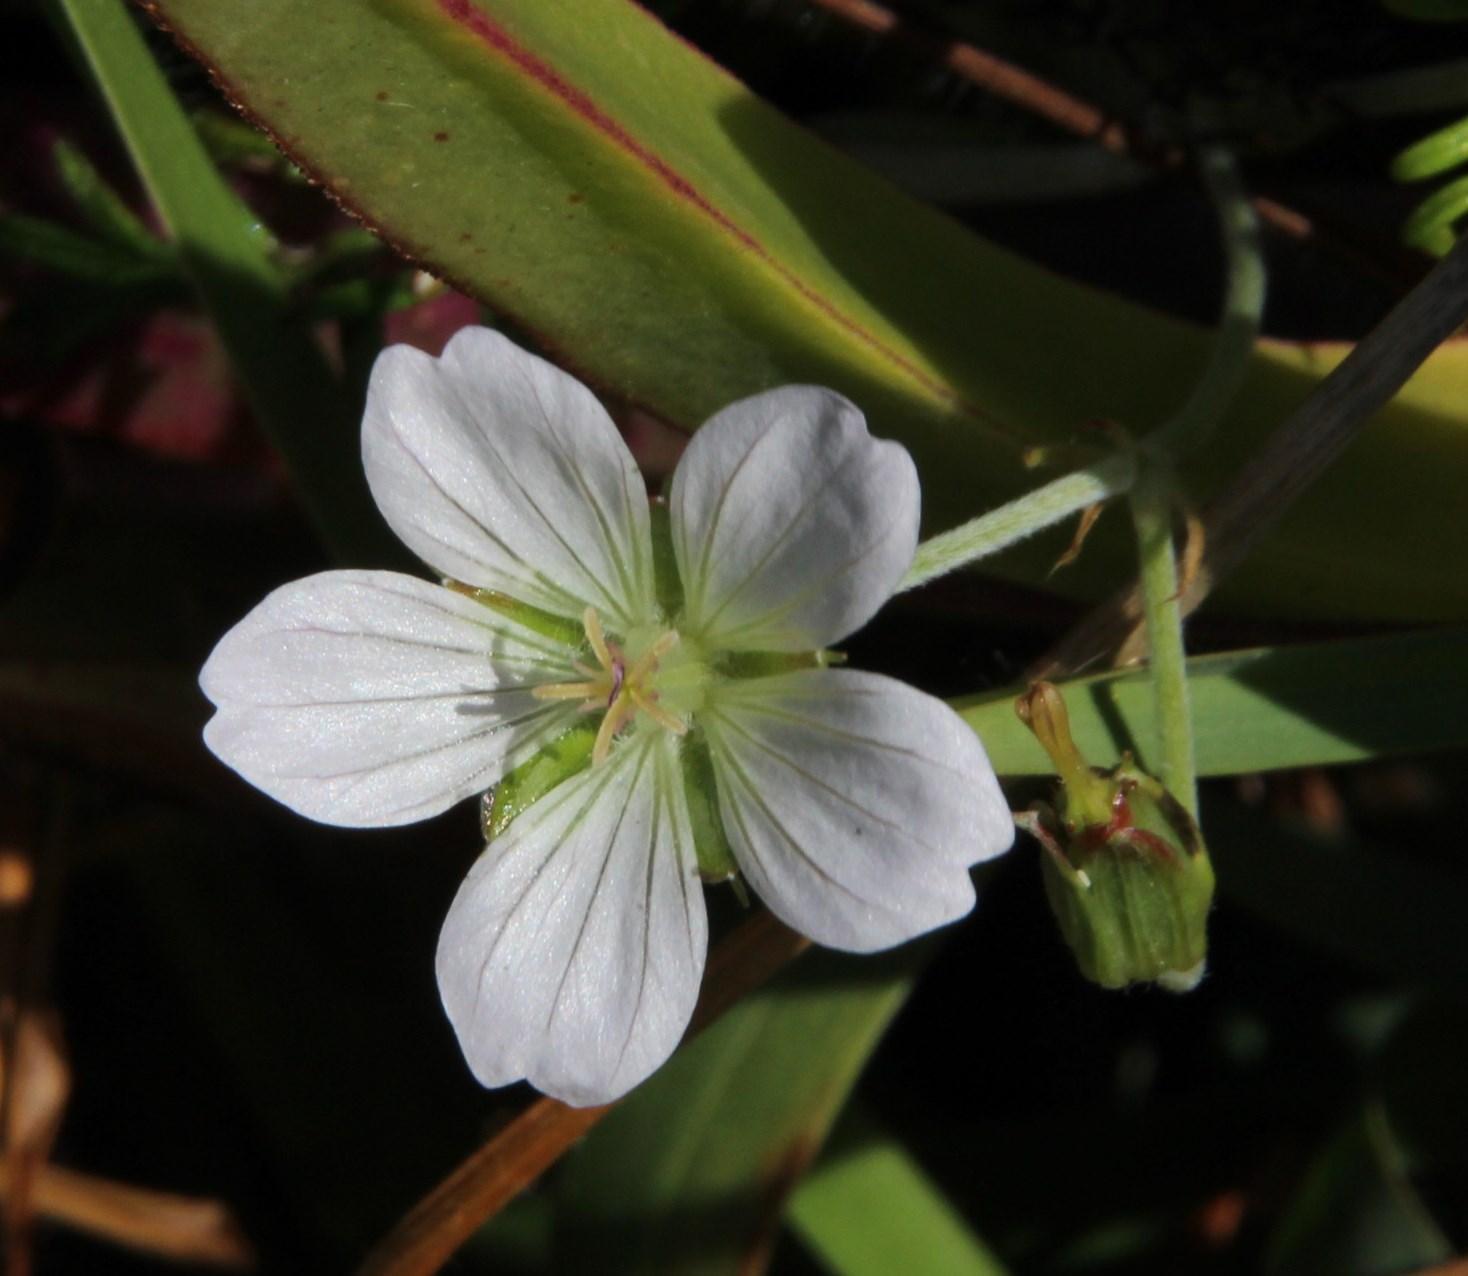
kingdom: Plantae
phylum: Tracheophyta
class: Magnoliopsida
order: Geraniales
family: Geraniaceae
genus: Geranium
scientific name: Geranium incanum
